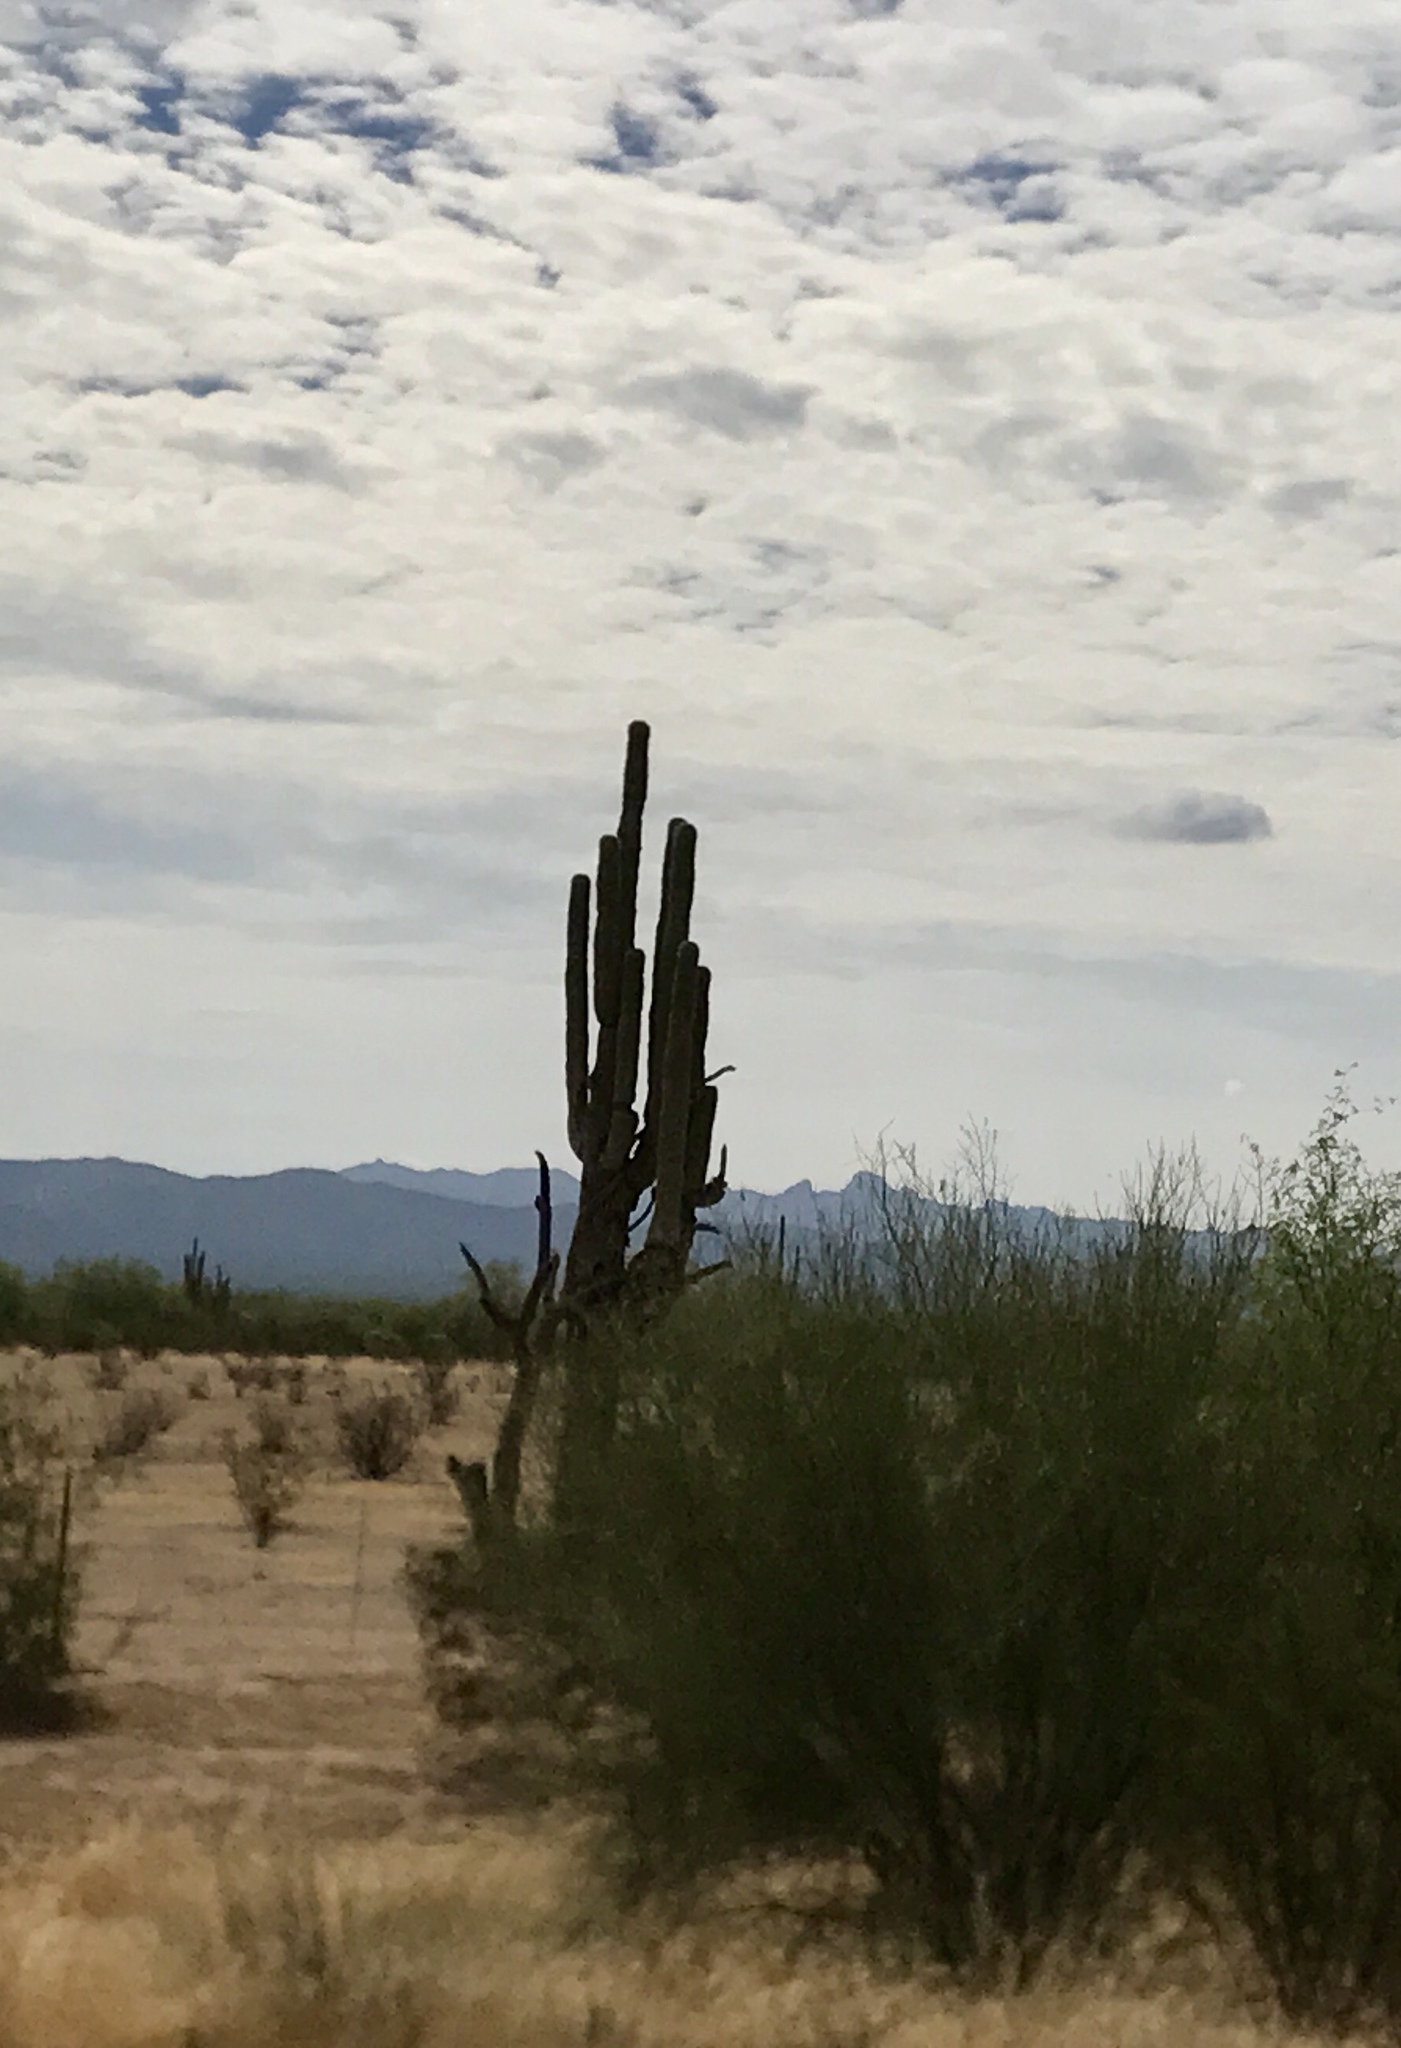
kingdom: Plantae
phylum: Tracheophyta
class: Magnoliopsida
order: Caryophyllales
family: Cactaceae
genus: Carnegiea
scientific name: Carnegiea gigantea
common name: Saguaro
